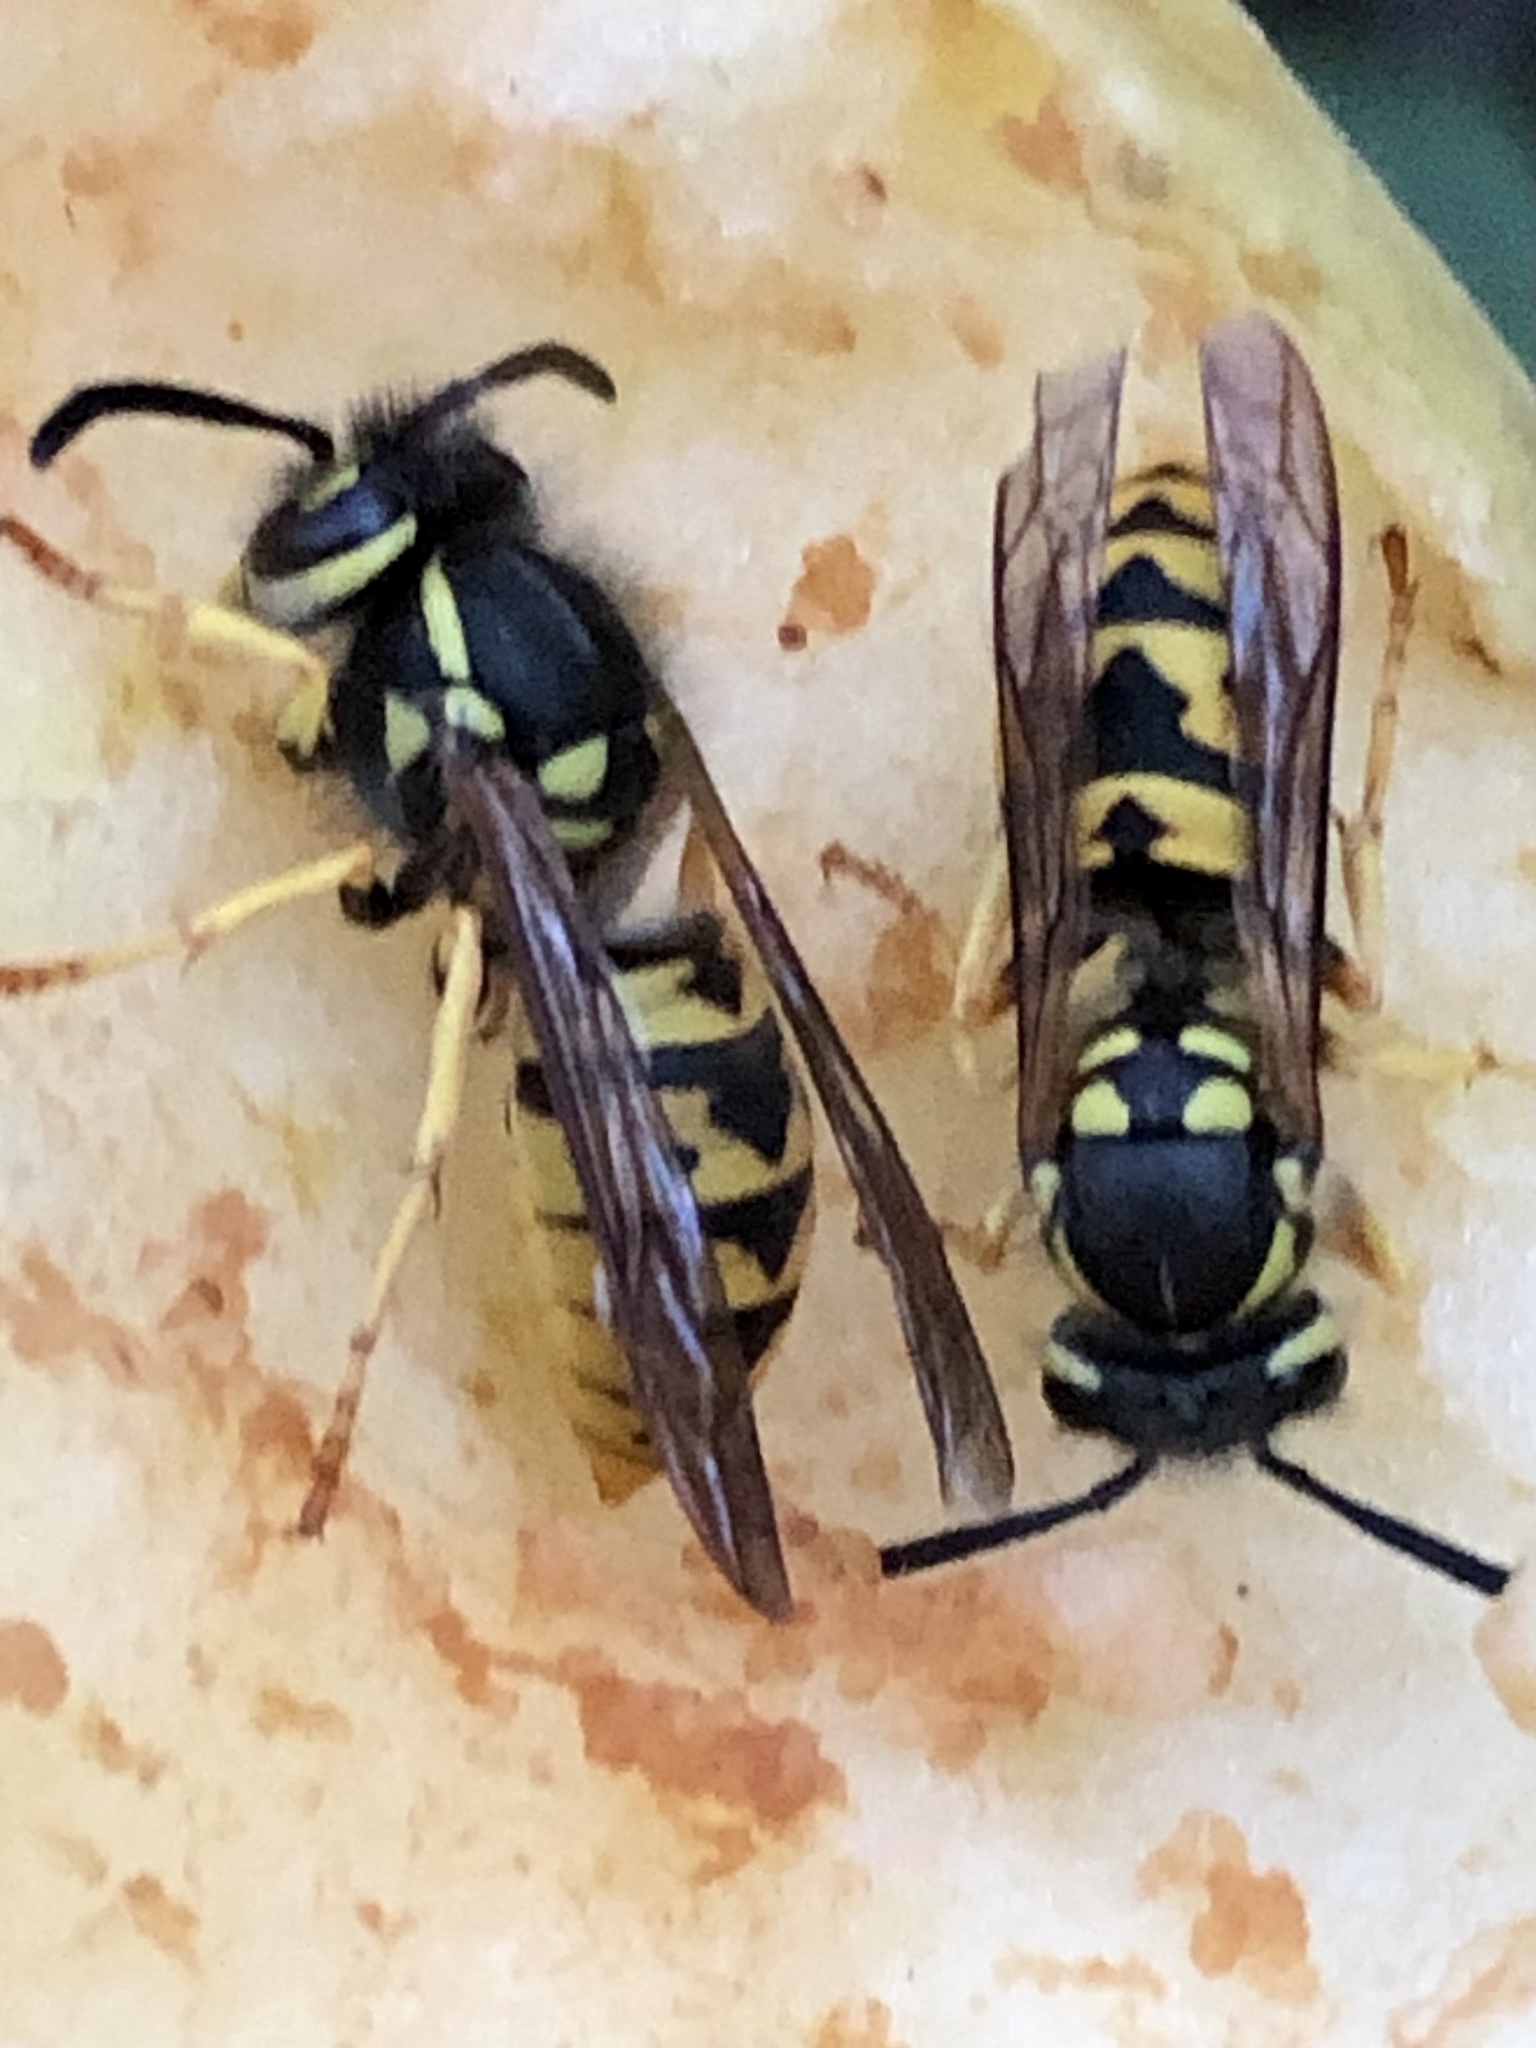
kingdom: Animalia
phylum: Arthropoda
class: Insecta
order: Hymenoptera
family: Vespidae
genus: Vespula
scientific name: Vespula germanica
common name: German wasp
